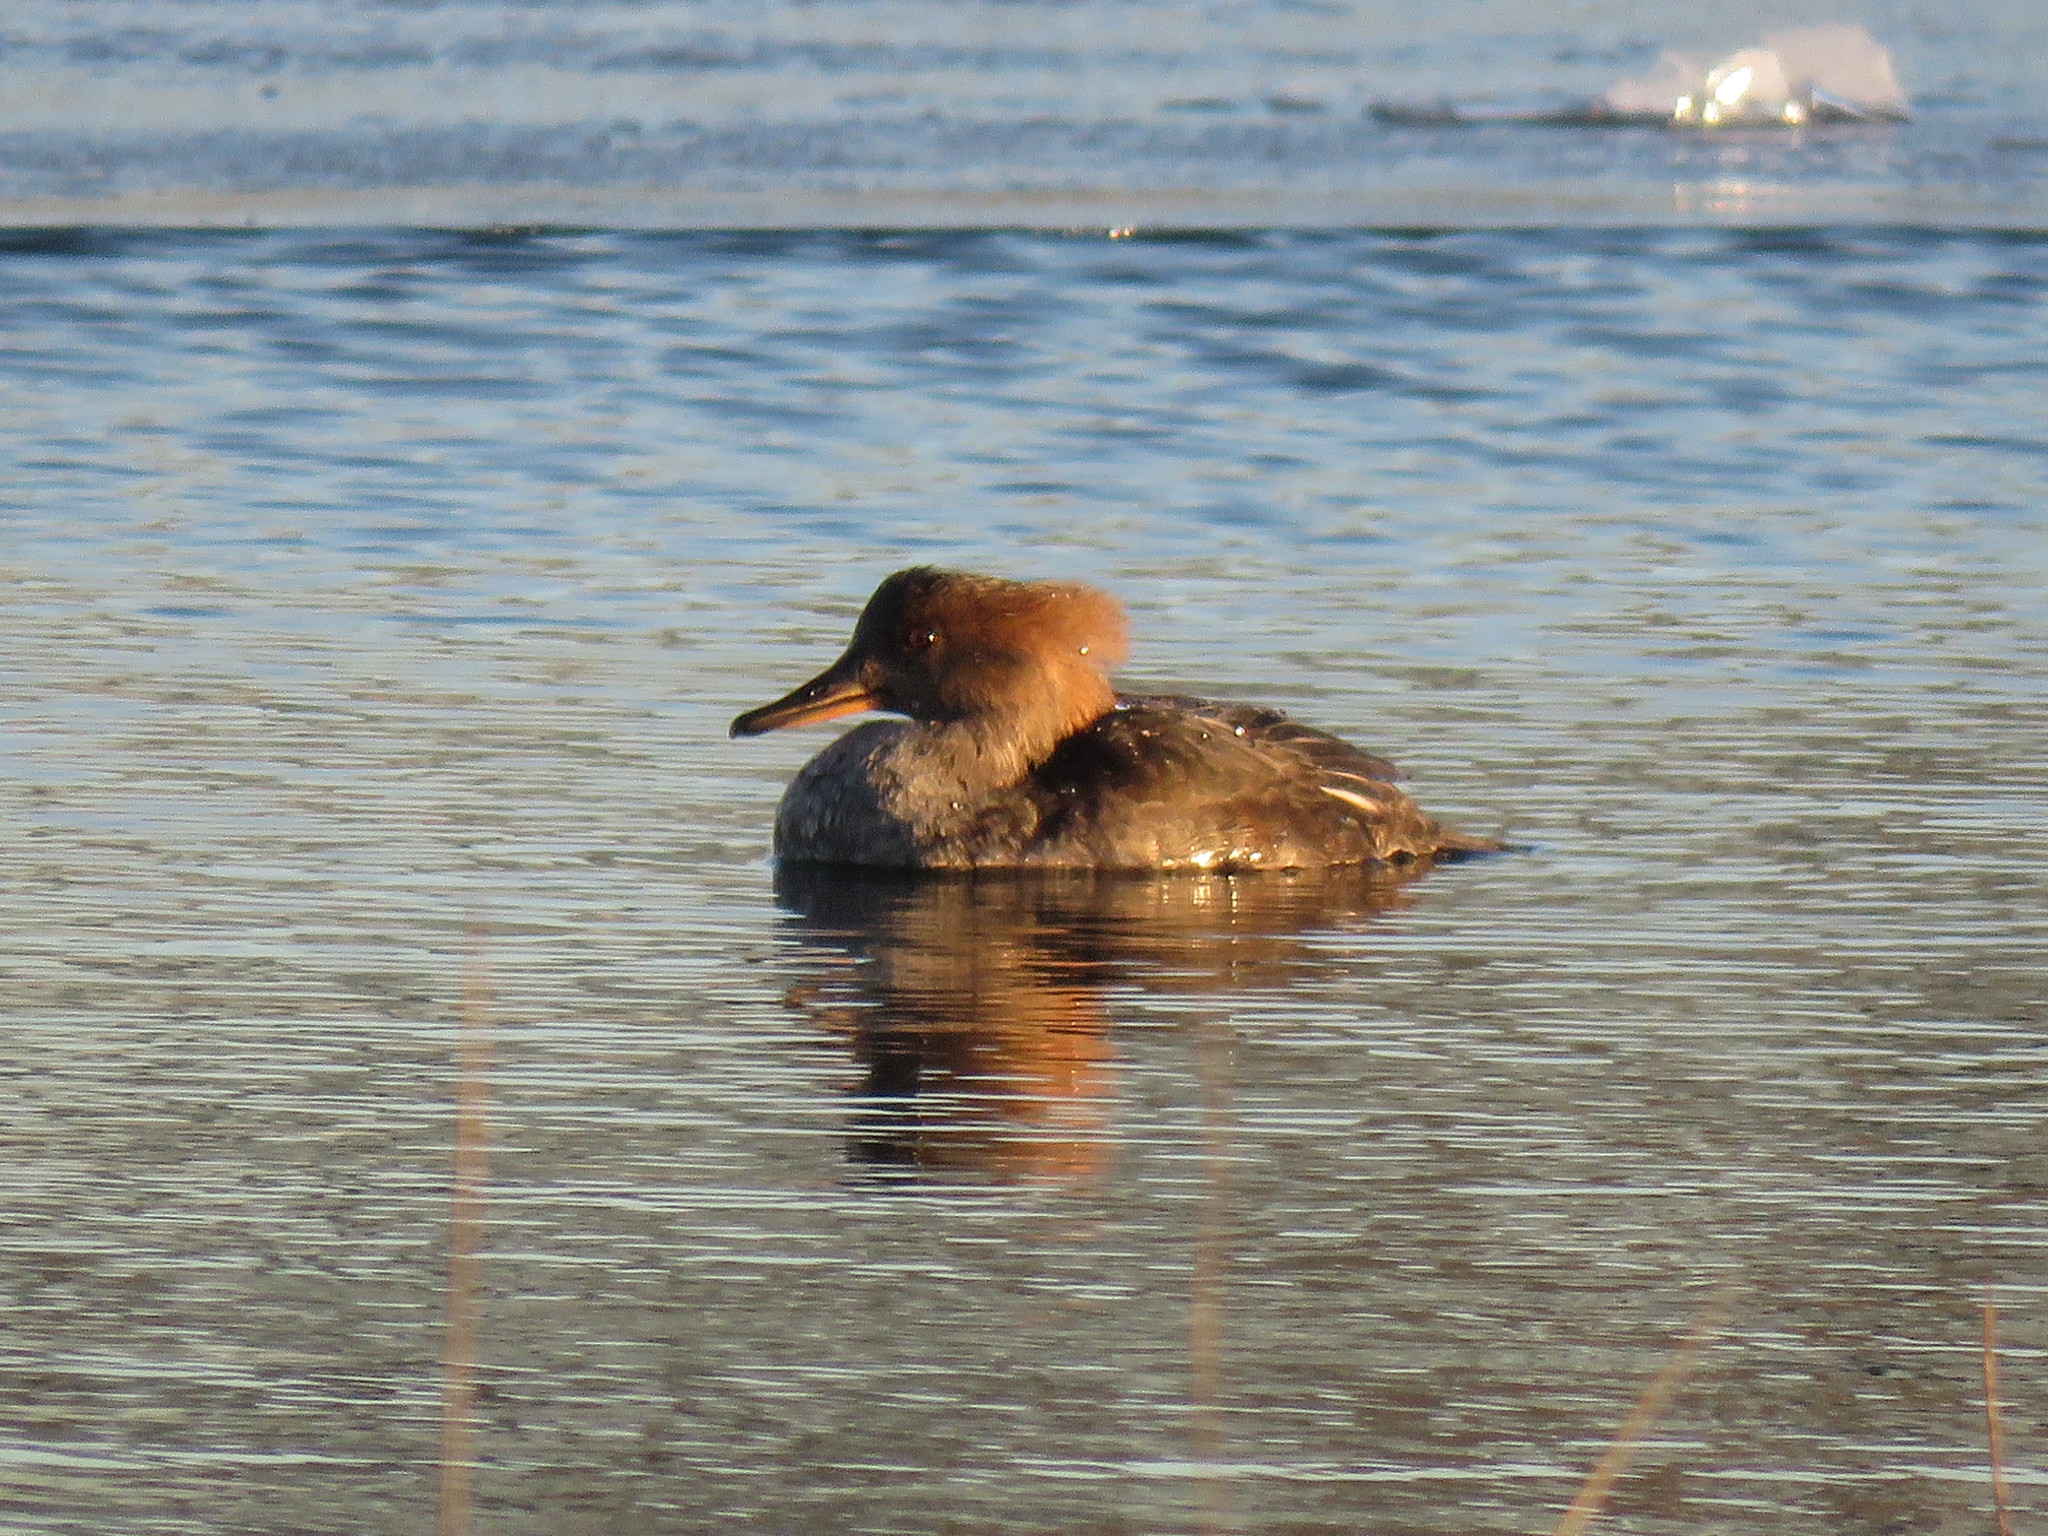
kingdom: Animalia
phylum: Chordata
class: Aves
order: Anseriformes
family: Anatidae
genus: Lophodytes
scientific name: Lophodytes cucullatus
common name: Hooded merganser
